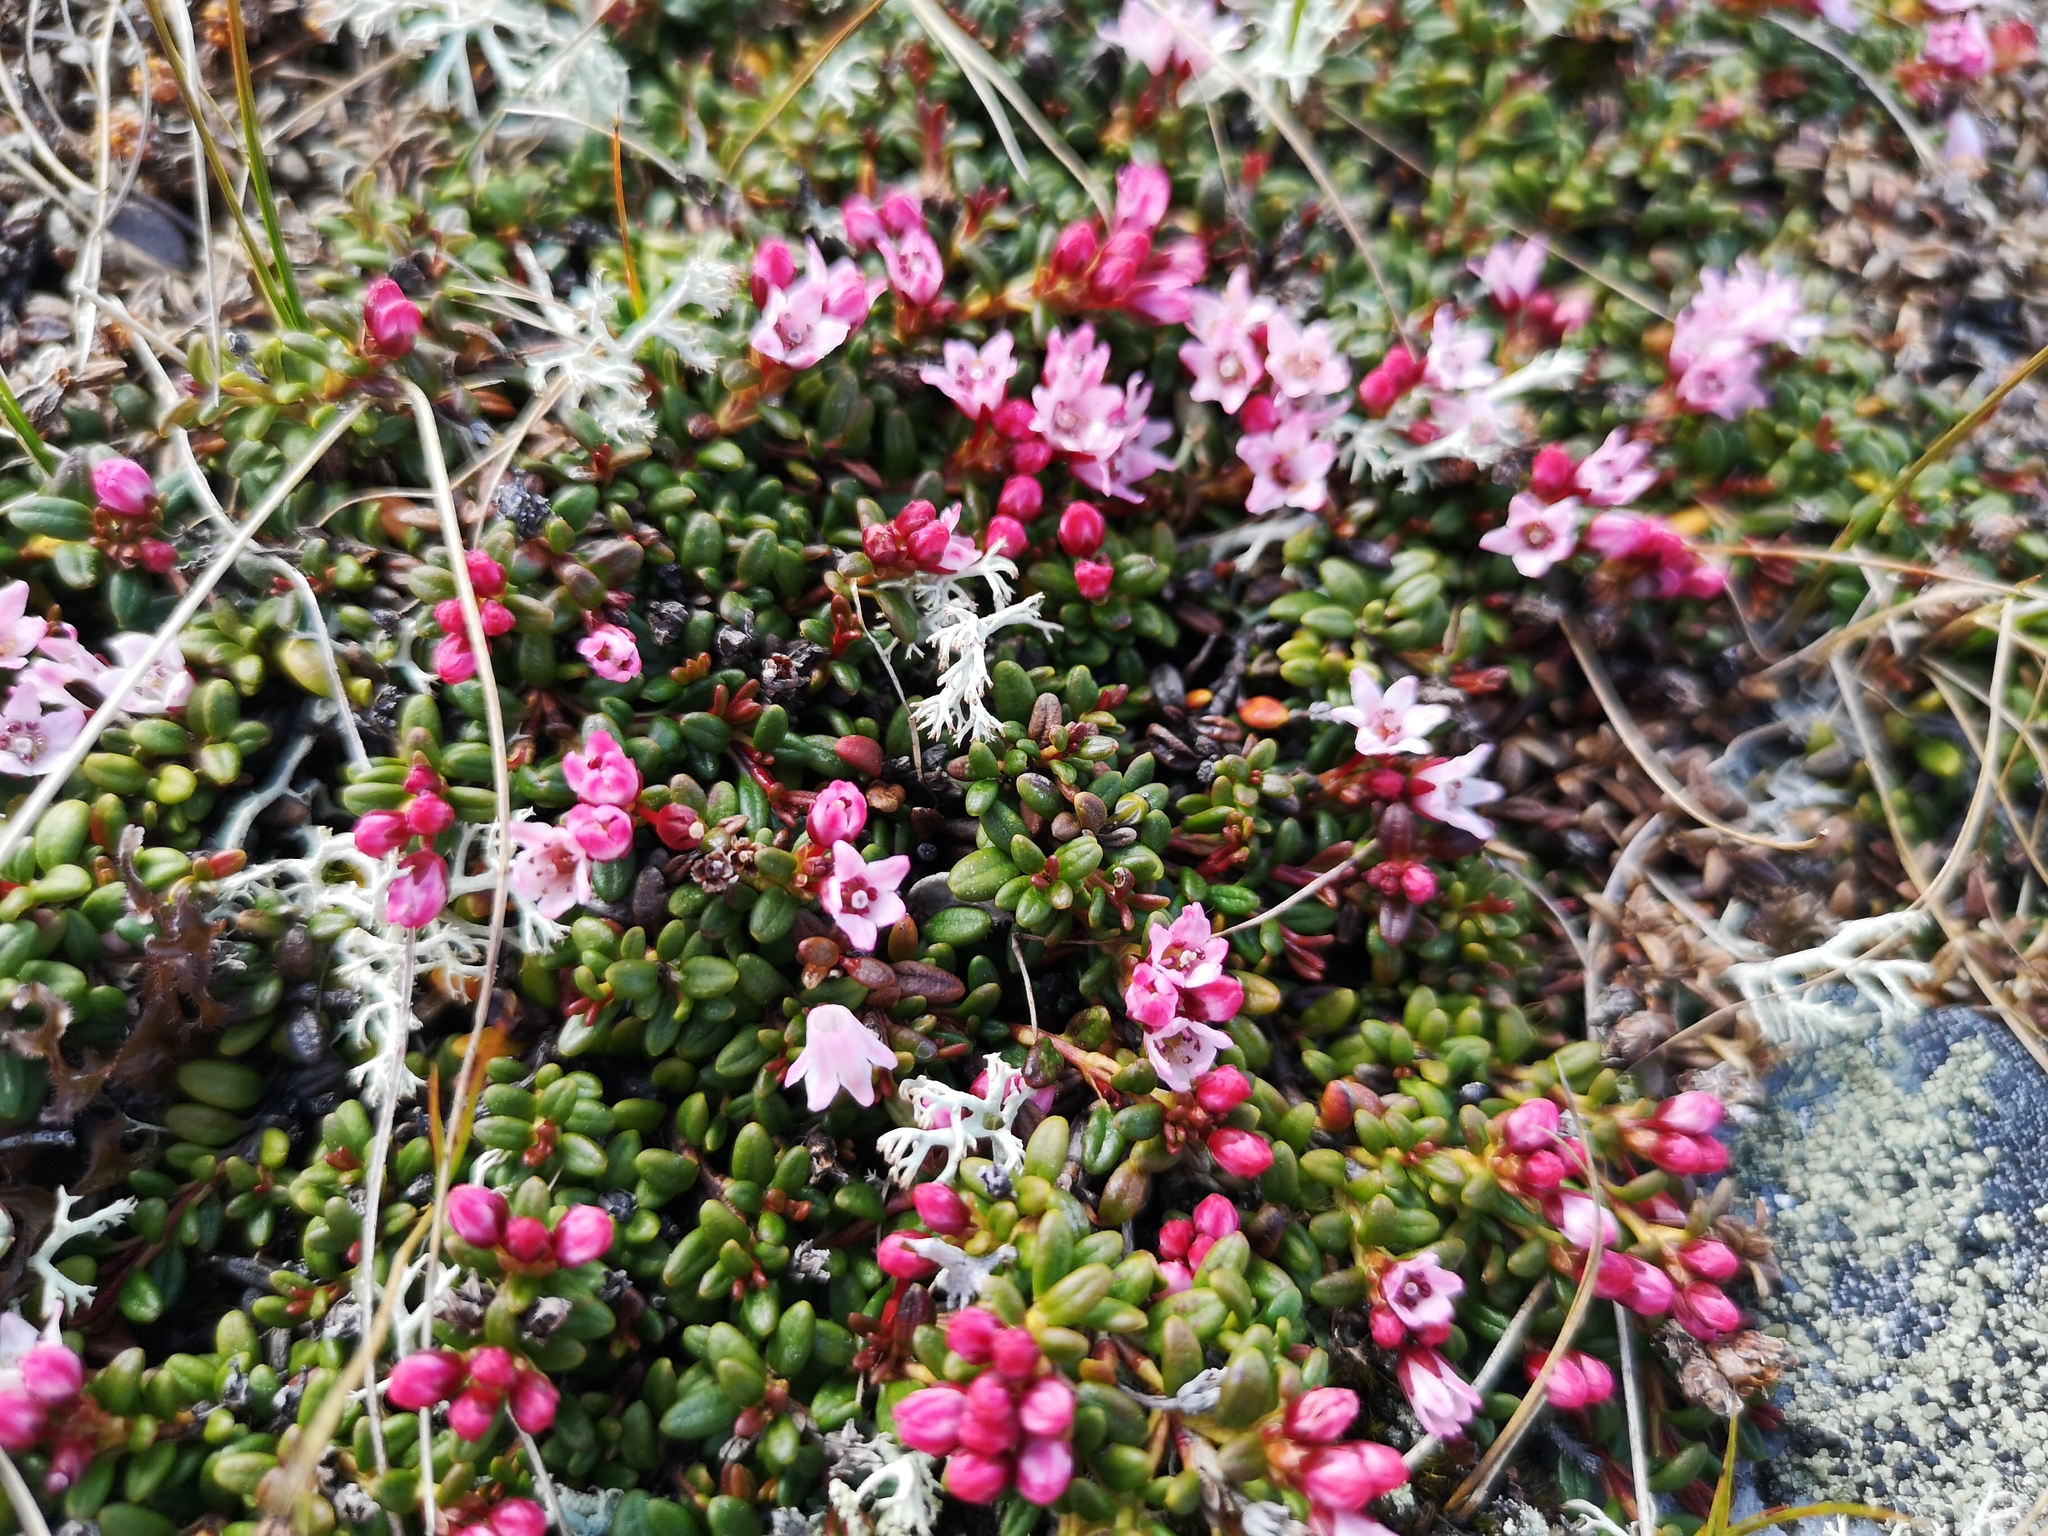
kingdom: Plantae
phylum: Tracheophyta
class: Magnoliopsida
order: Ericales
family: Ericaceae
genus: Kalmia
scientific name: Kalmia procumbens
